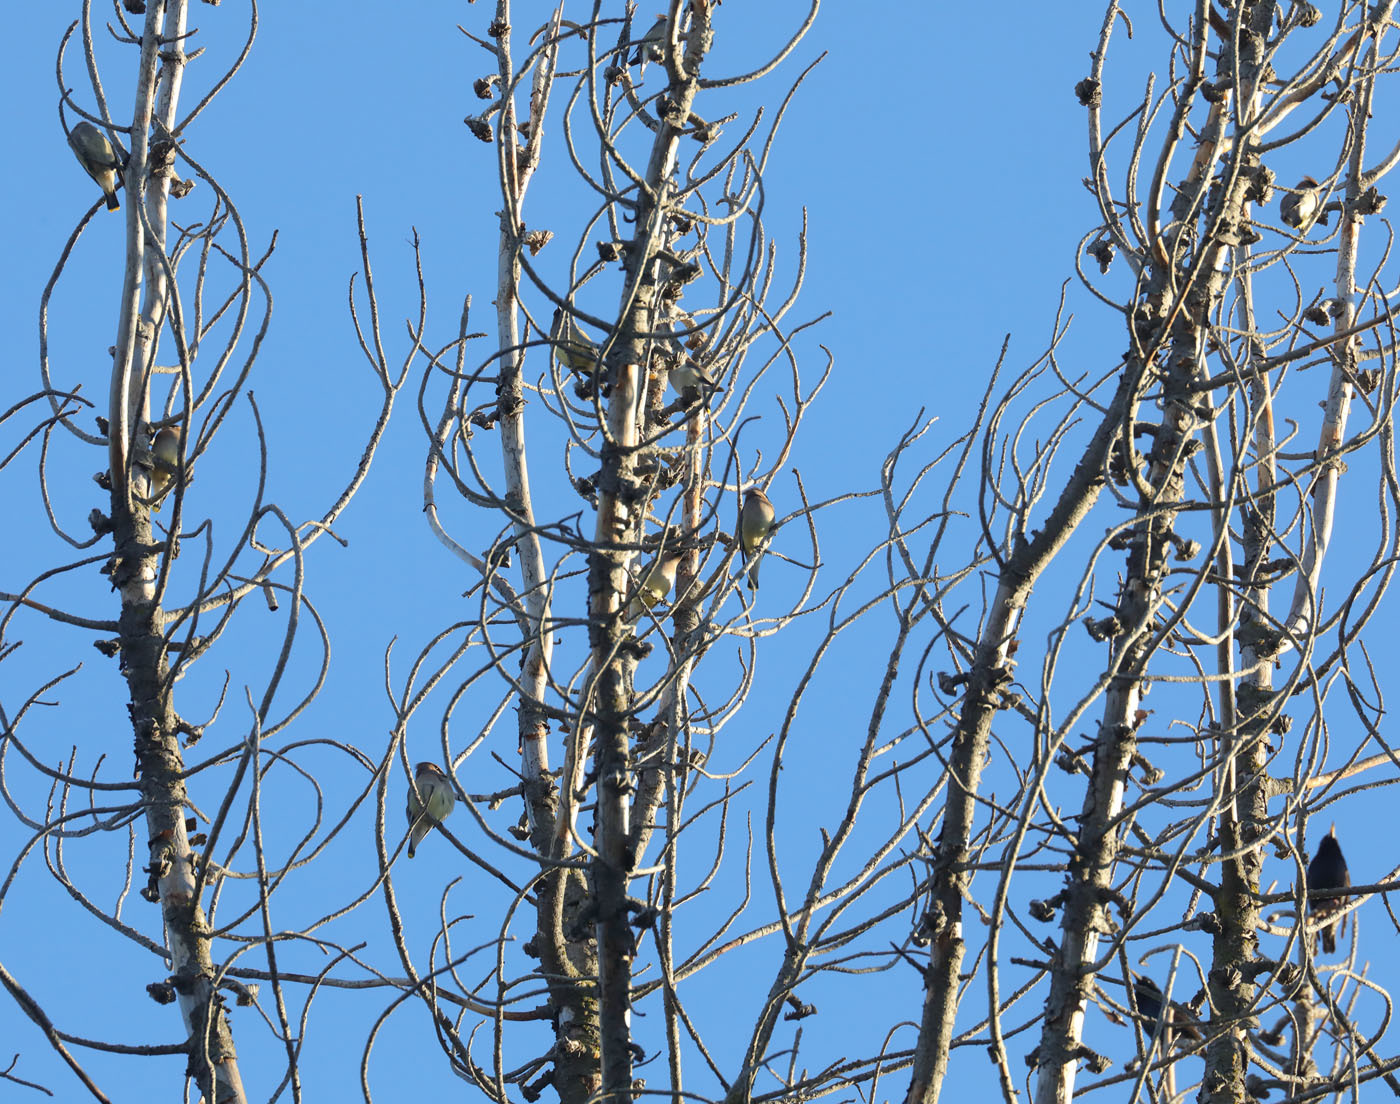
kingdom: Animalia
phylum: Chordata
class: Aves
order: Passeriformes
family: Bombycillidae
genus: Bombycilla
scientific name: Bombycilla cedrorum
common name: Cedar waxwing
